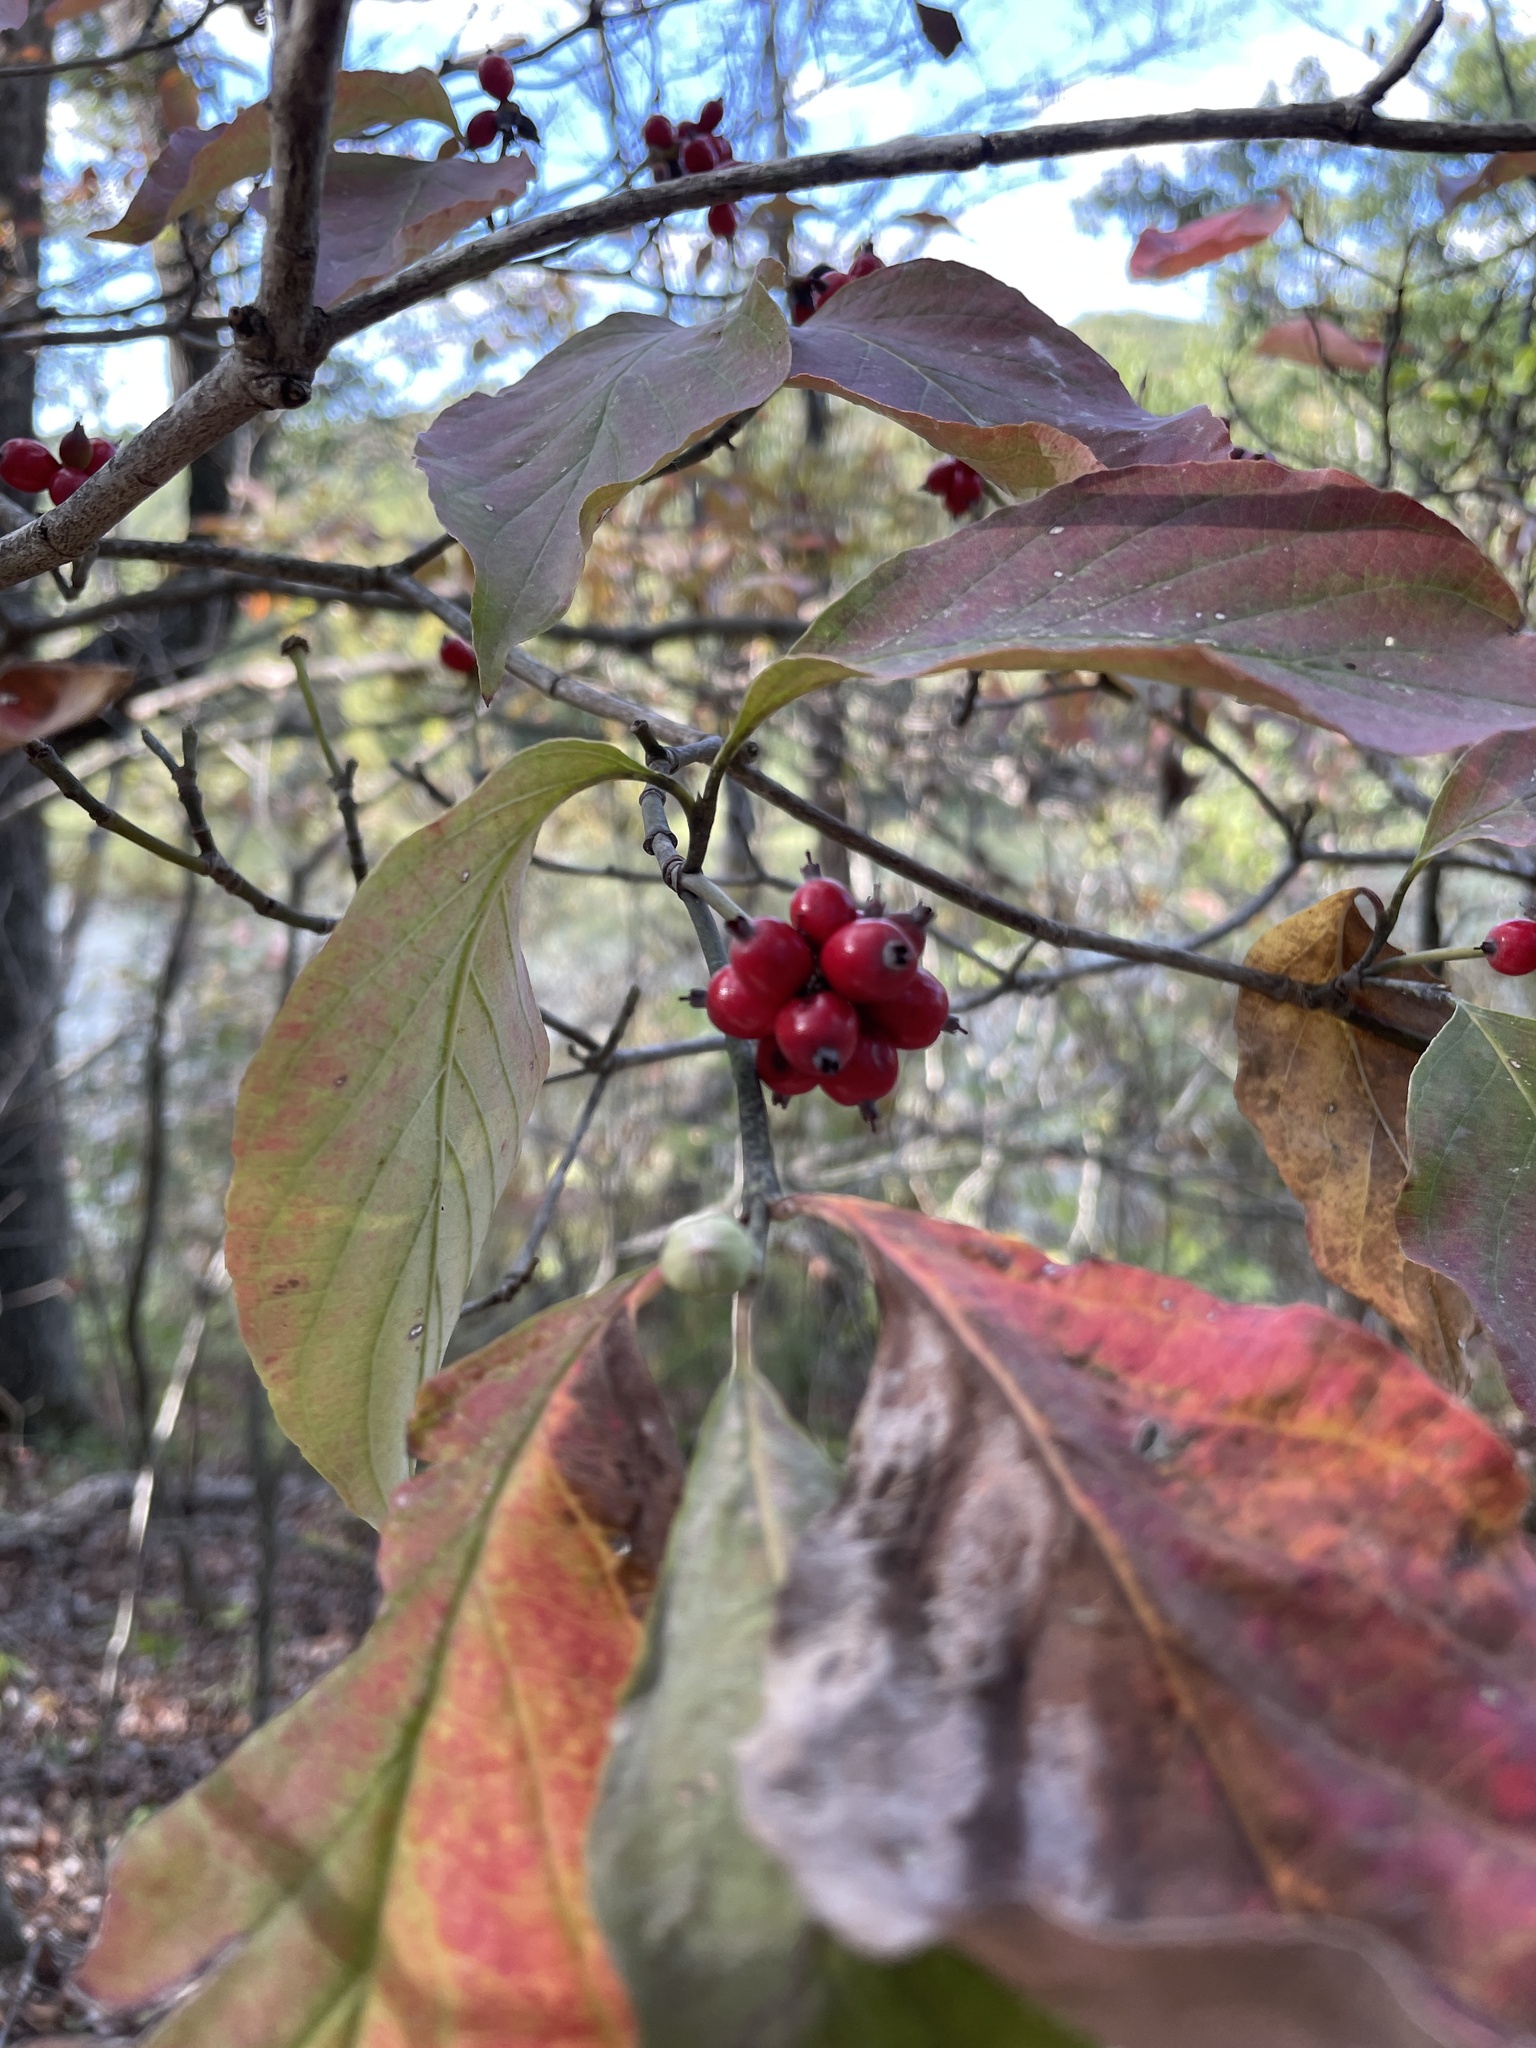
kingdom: Plantae
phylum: Tracheophyta
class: Magnoliopsida
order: Cornales
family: Cornaceae
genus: Cornus
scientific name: Cornus florida
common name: Flowering dogwood
